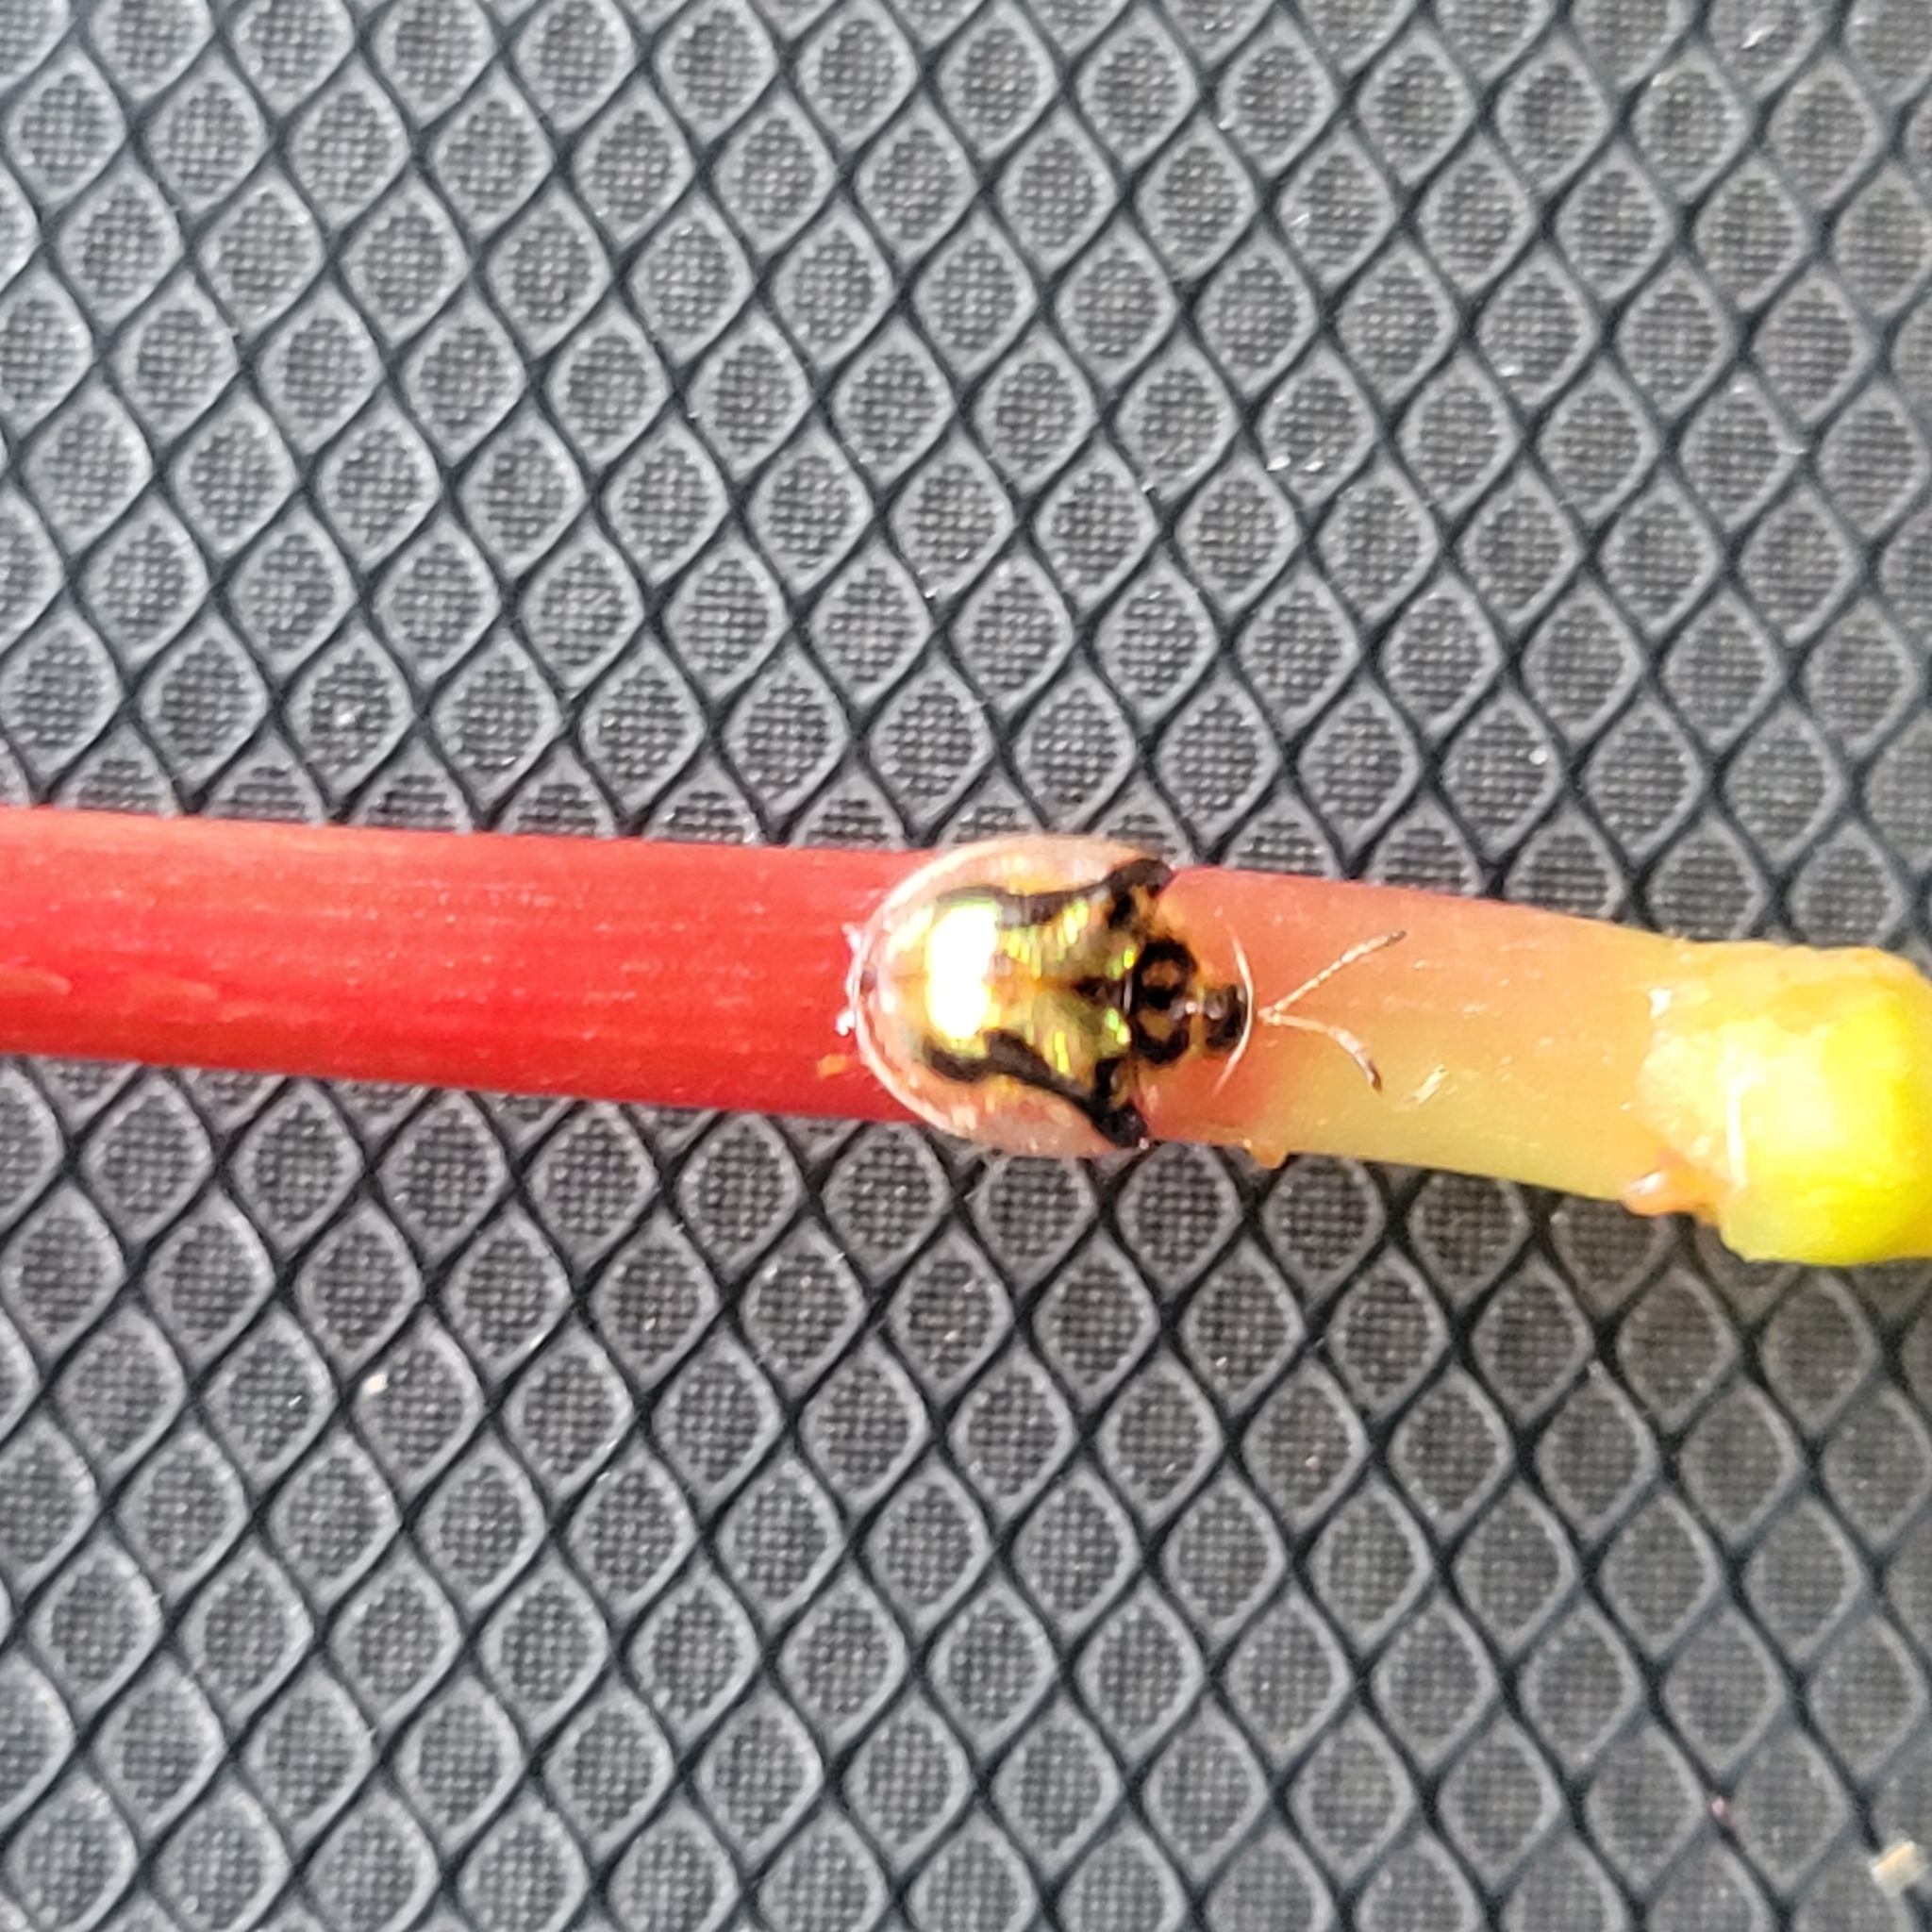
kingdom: Animalia
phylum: Arthropoda
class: Insecta
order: Coleoptera
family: Chrysomelidae
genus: Deloyala
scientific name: Deloyala guttata
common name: Mottled tortoise beetle
